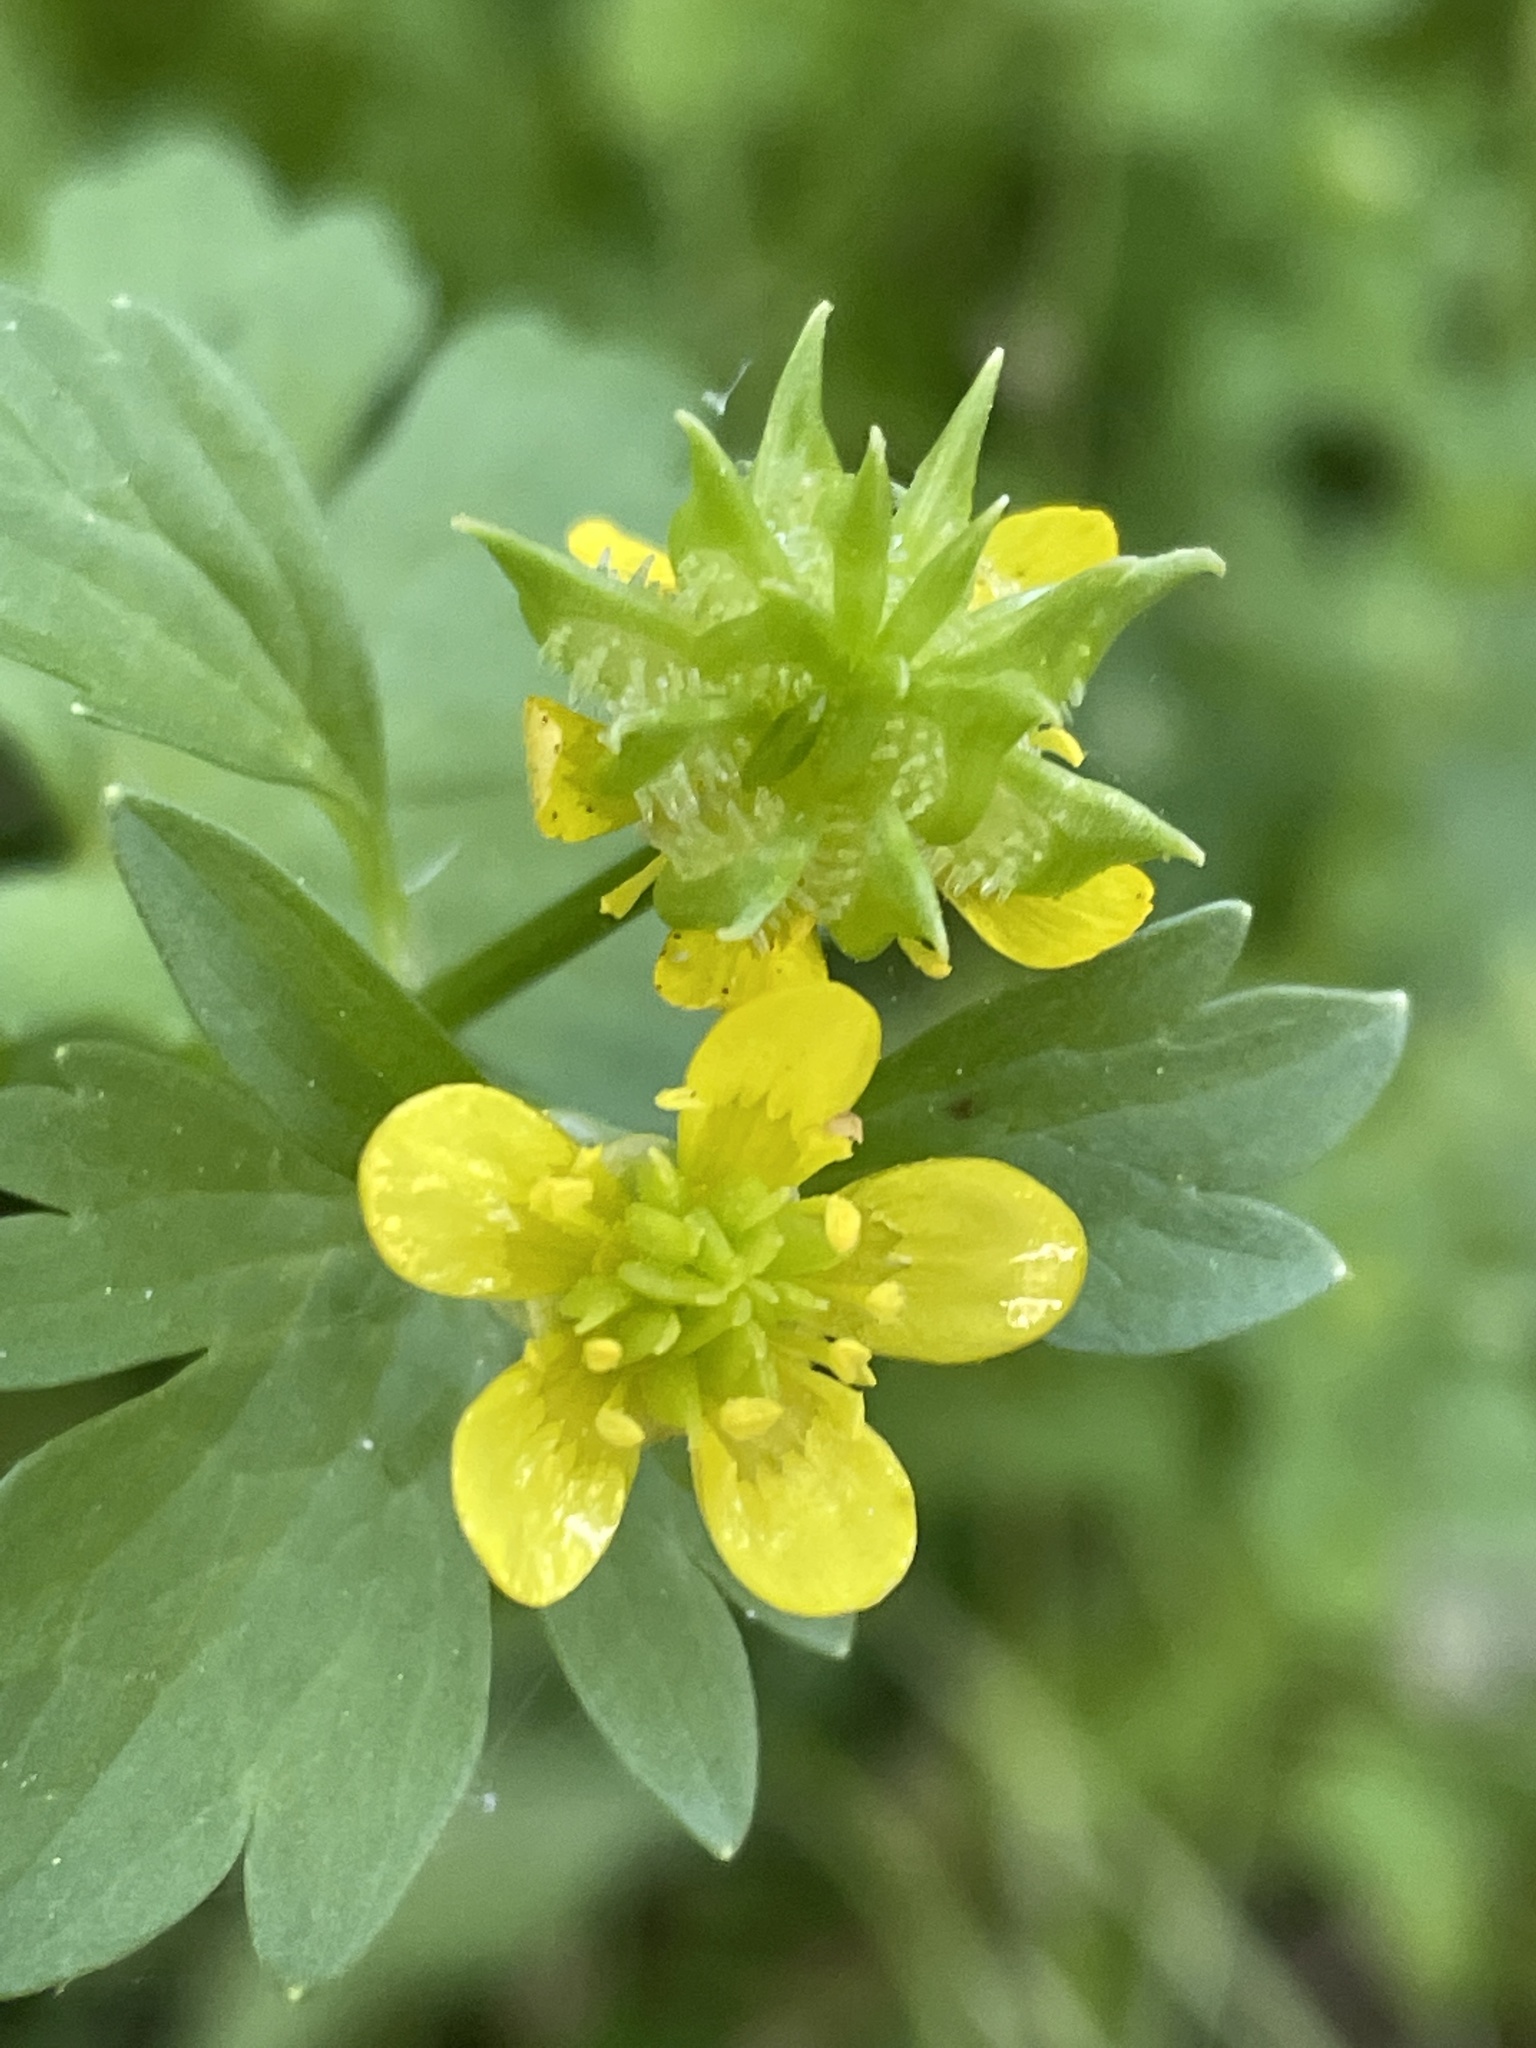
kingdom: Plantae
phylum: Tracheophyta
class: Magnoliopsida
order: Ranunculales
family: Ranunculaceae
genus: Ranunculus
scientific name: Ranunculus muricatus
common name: Rough-fruited buttercup
